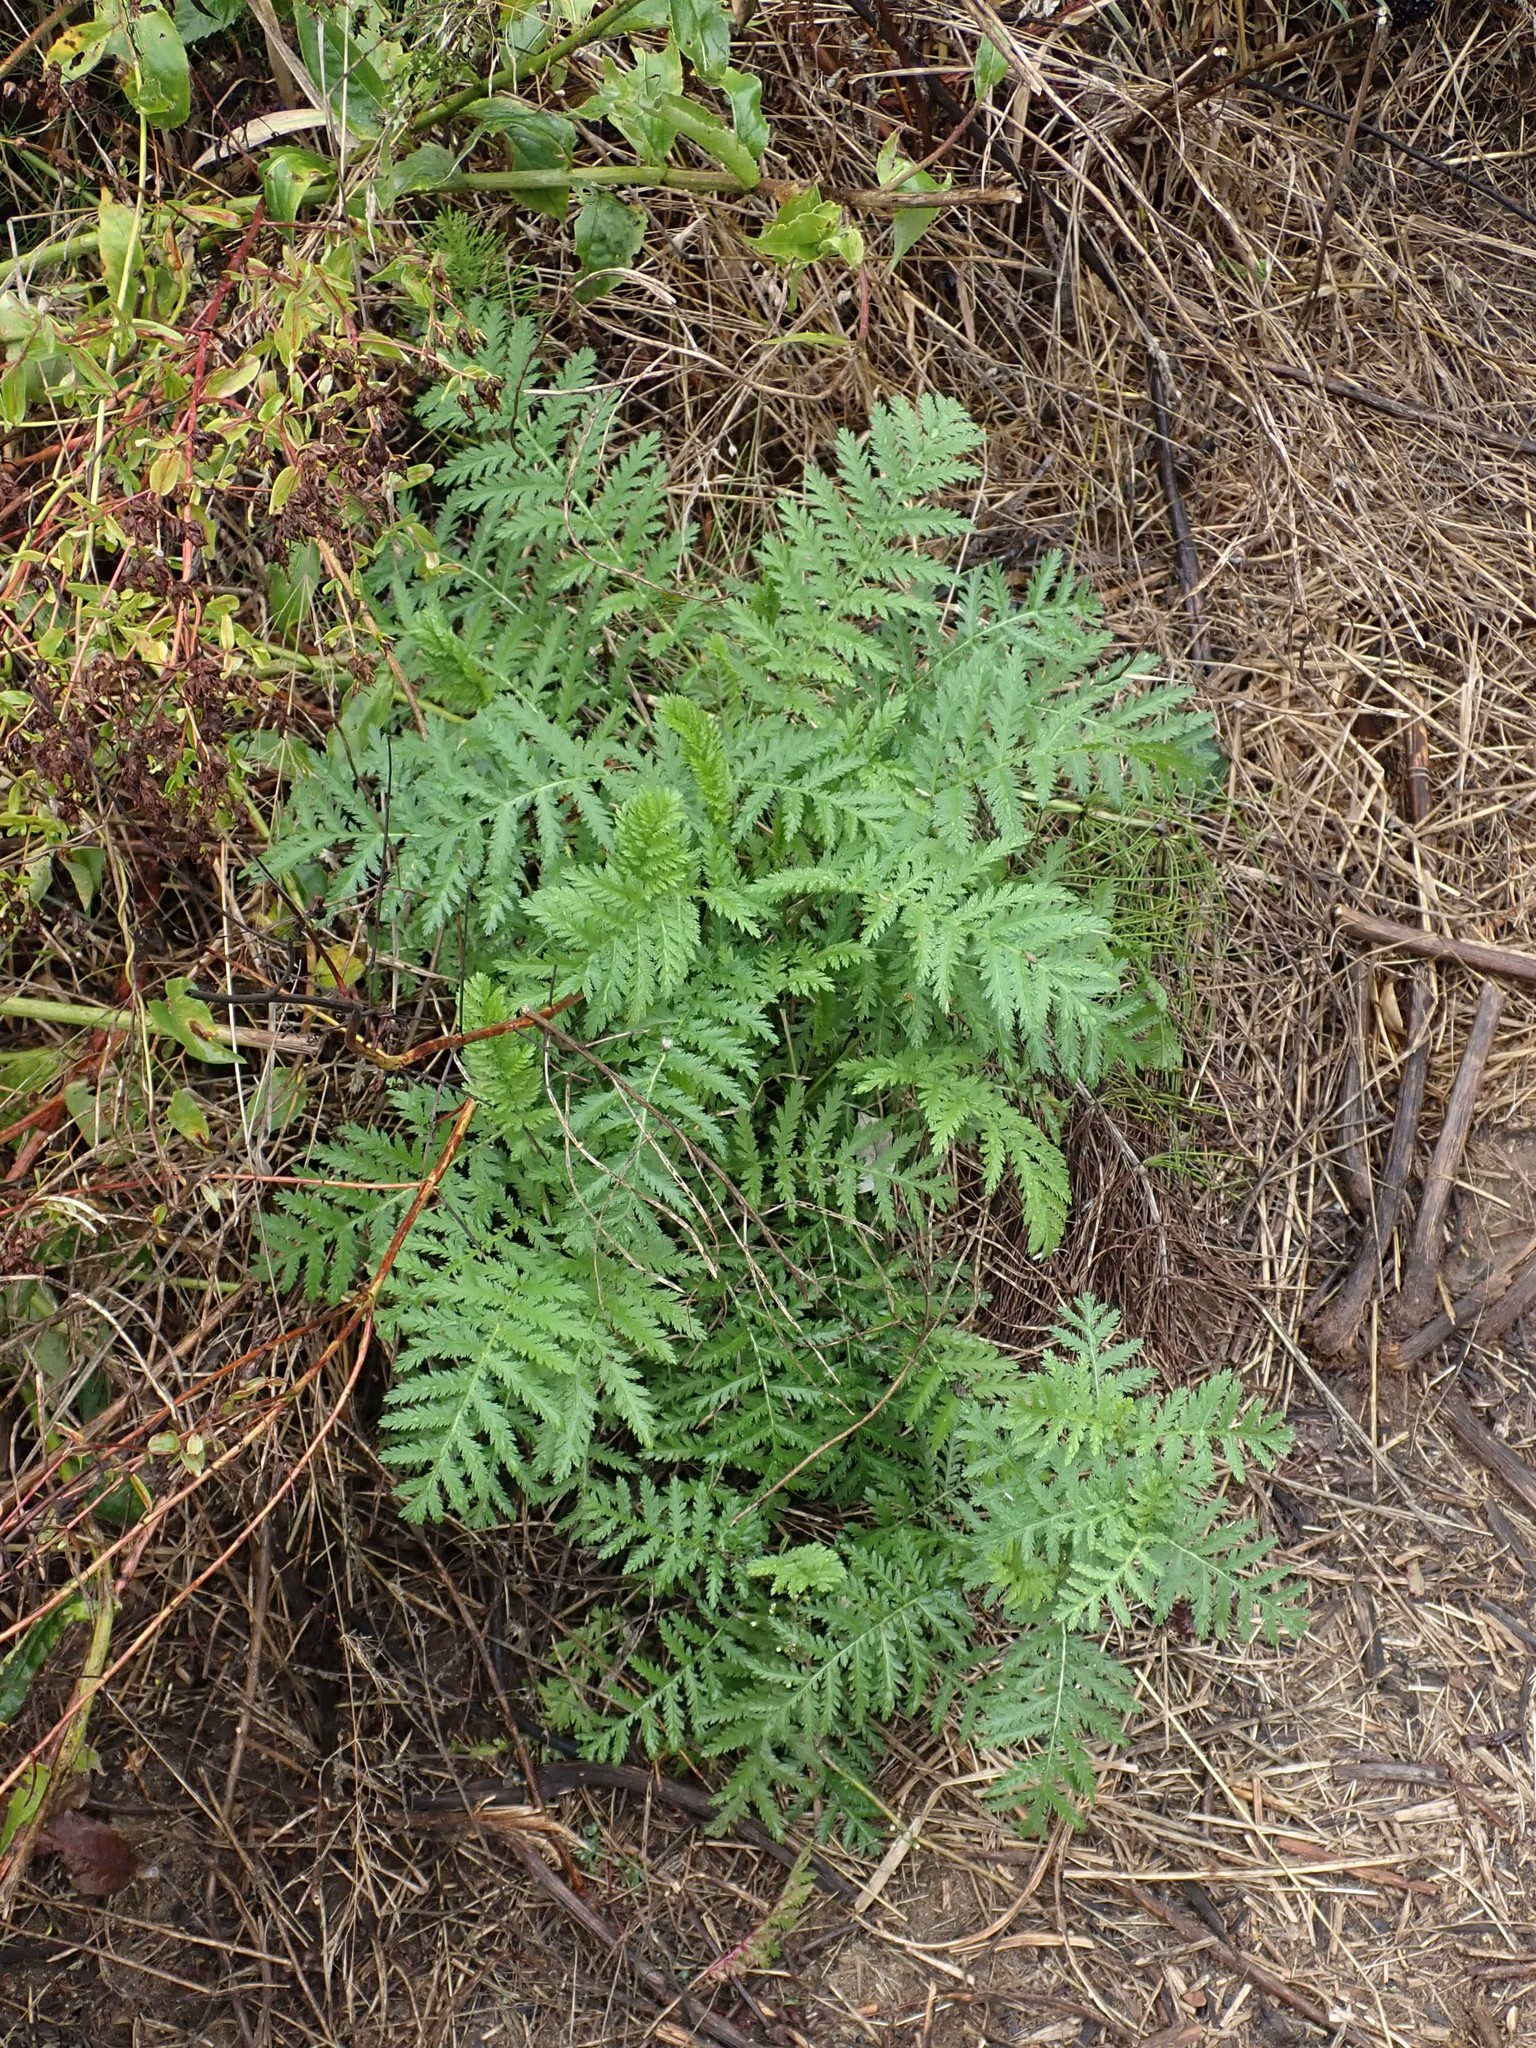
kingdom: Plantae
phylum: Tracheophyta
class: Magnoliopsida
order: Asterales
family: Asteraceae
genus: Tanacetum
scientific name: Tanacetum vulgare
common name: Common tansy
